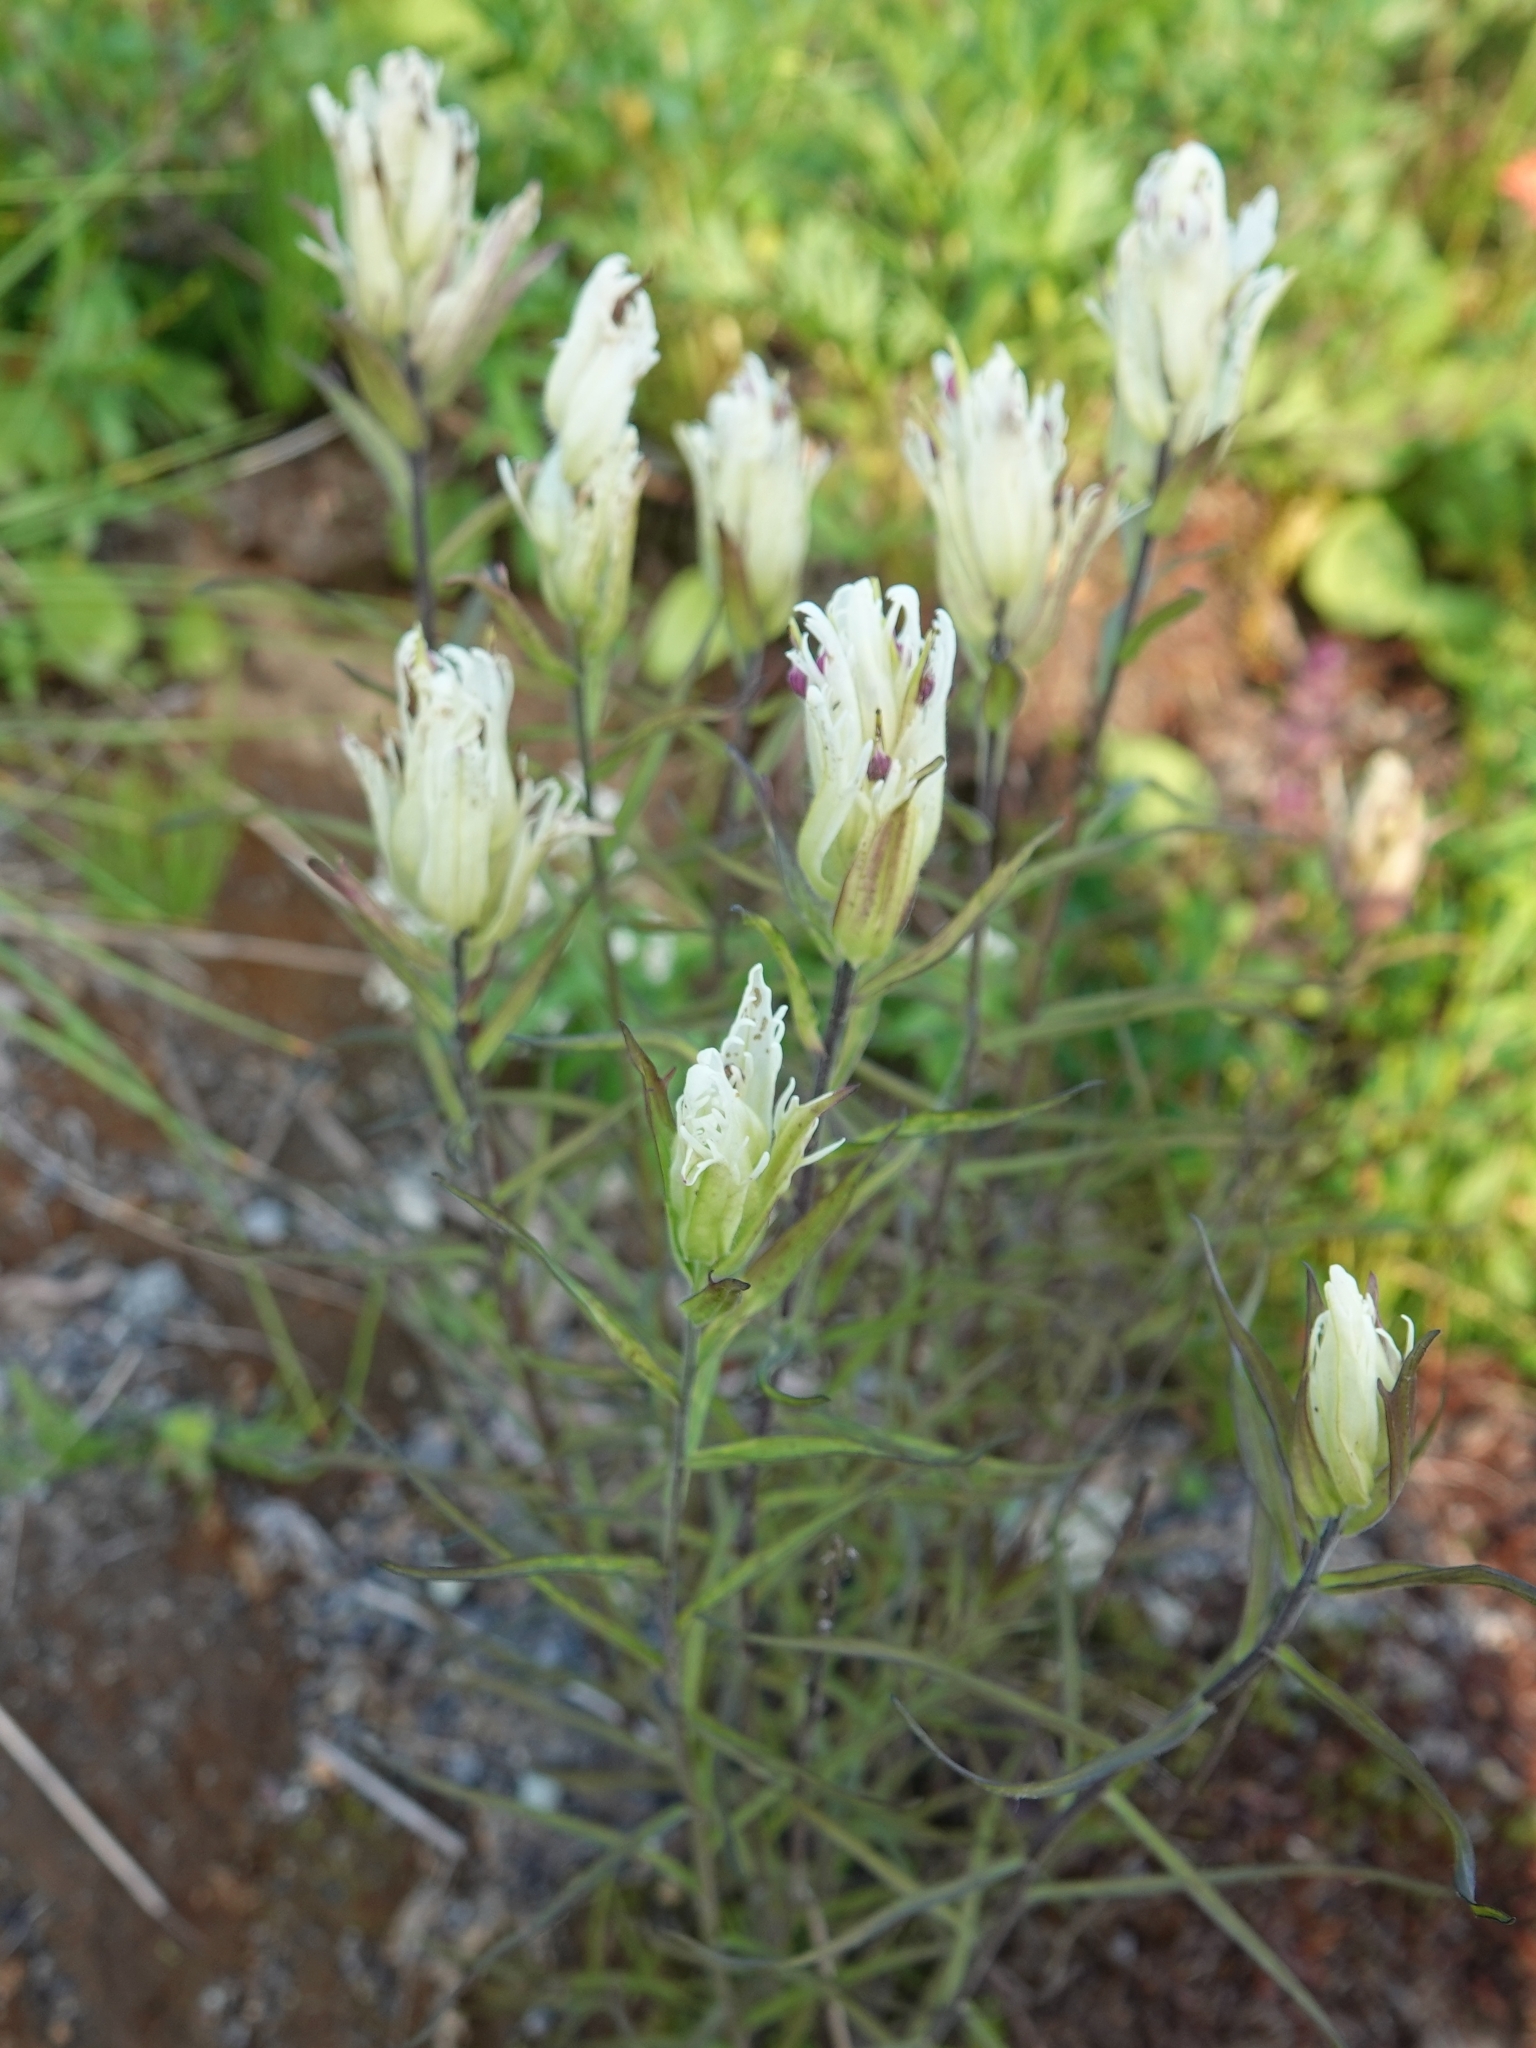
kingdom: Plantae
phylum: Tracheophyta
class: Magnoliopsida
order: Lamiales
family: Orobanchaceae
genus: Castilleja
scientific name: Castilleja pallida
